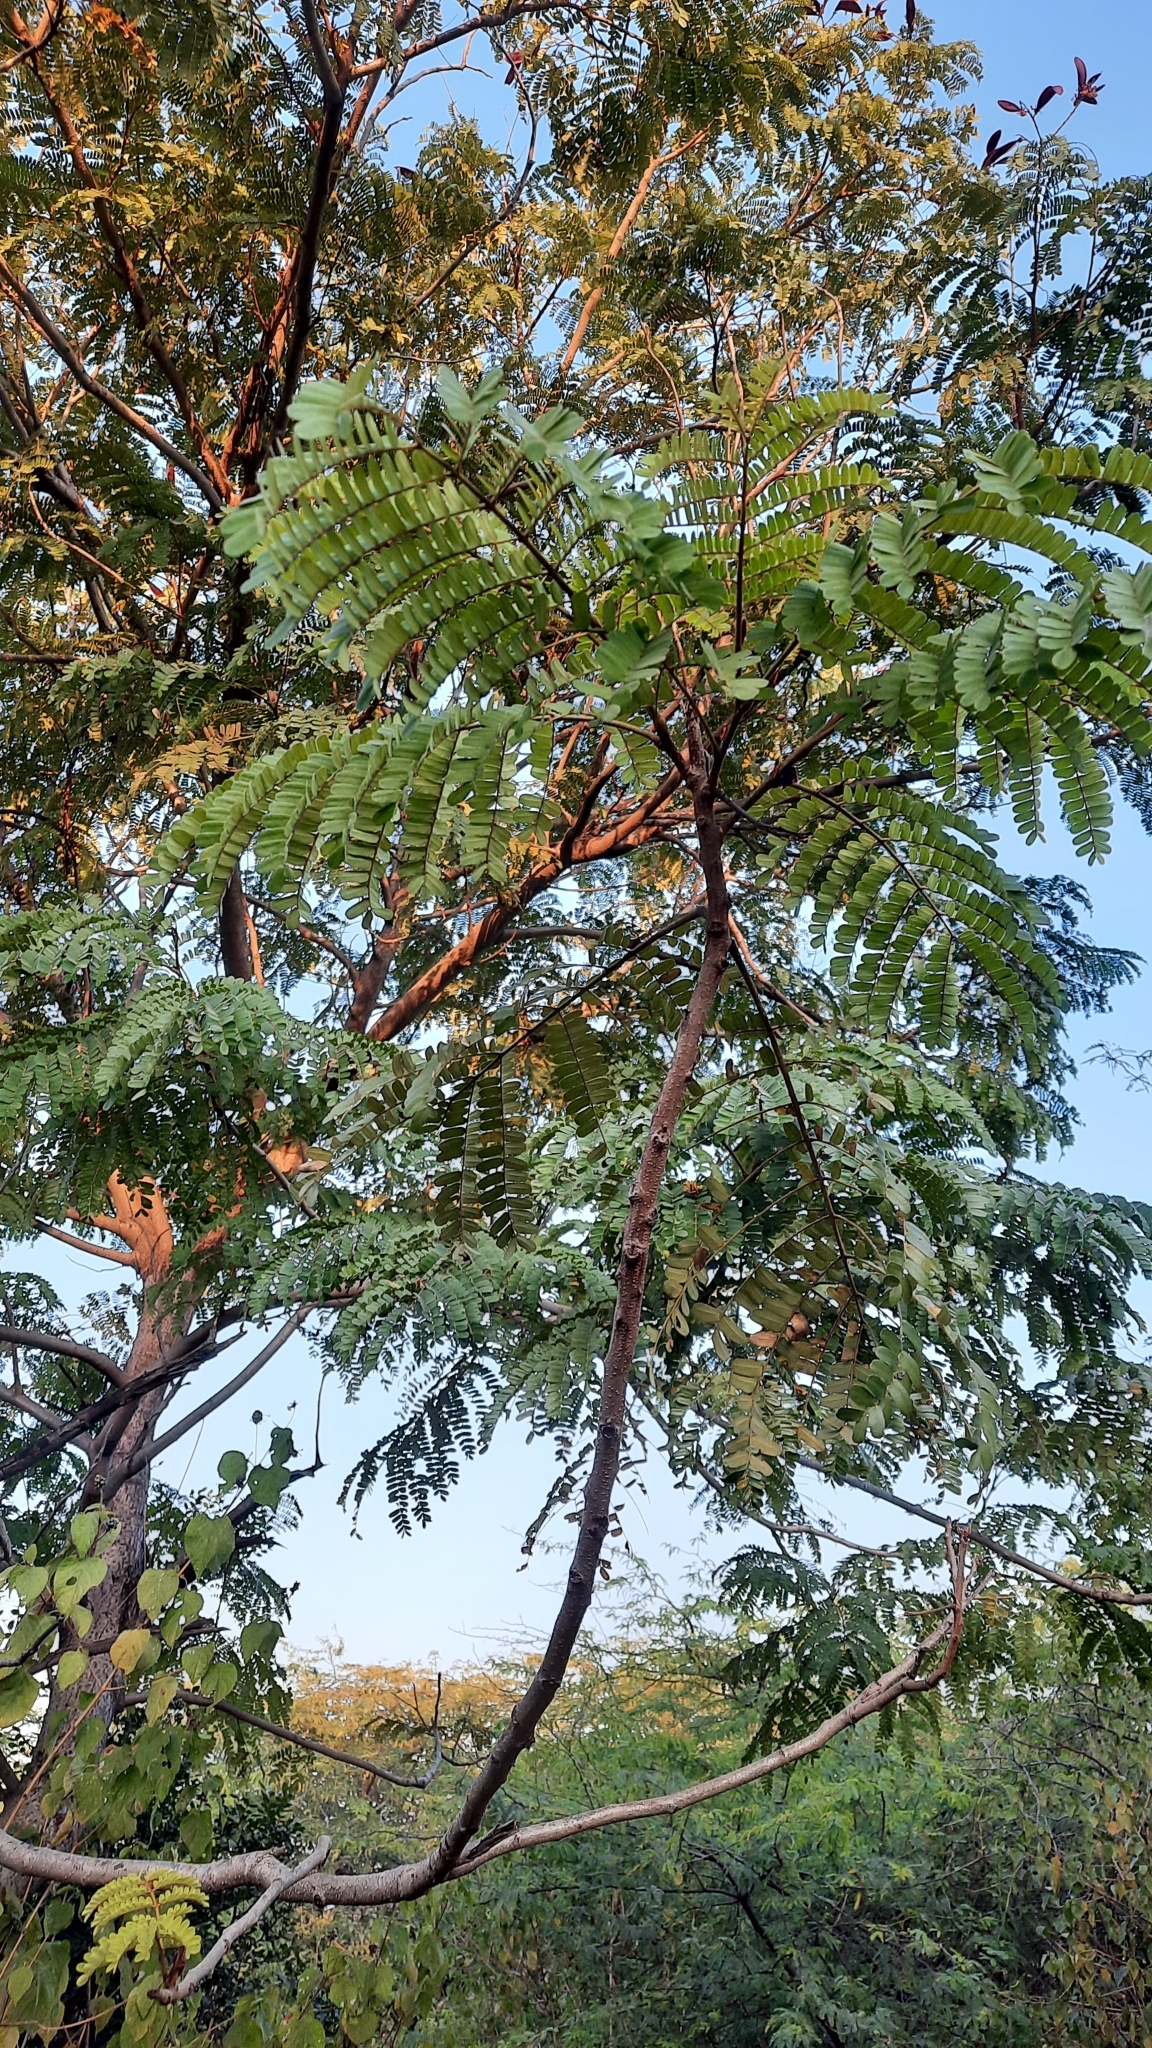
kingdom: Plantae
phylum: Tracheophyta
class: Magnoliopsida
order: Fabales
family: Fabaceae
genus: Caesalpinia
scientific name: Caesalpinia pulcherrima
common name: Pride-of-barbados
